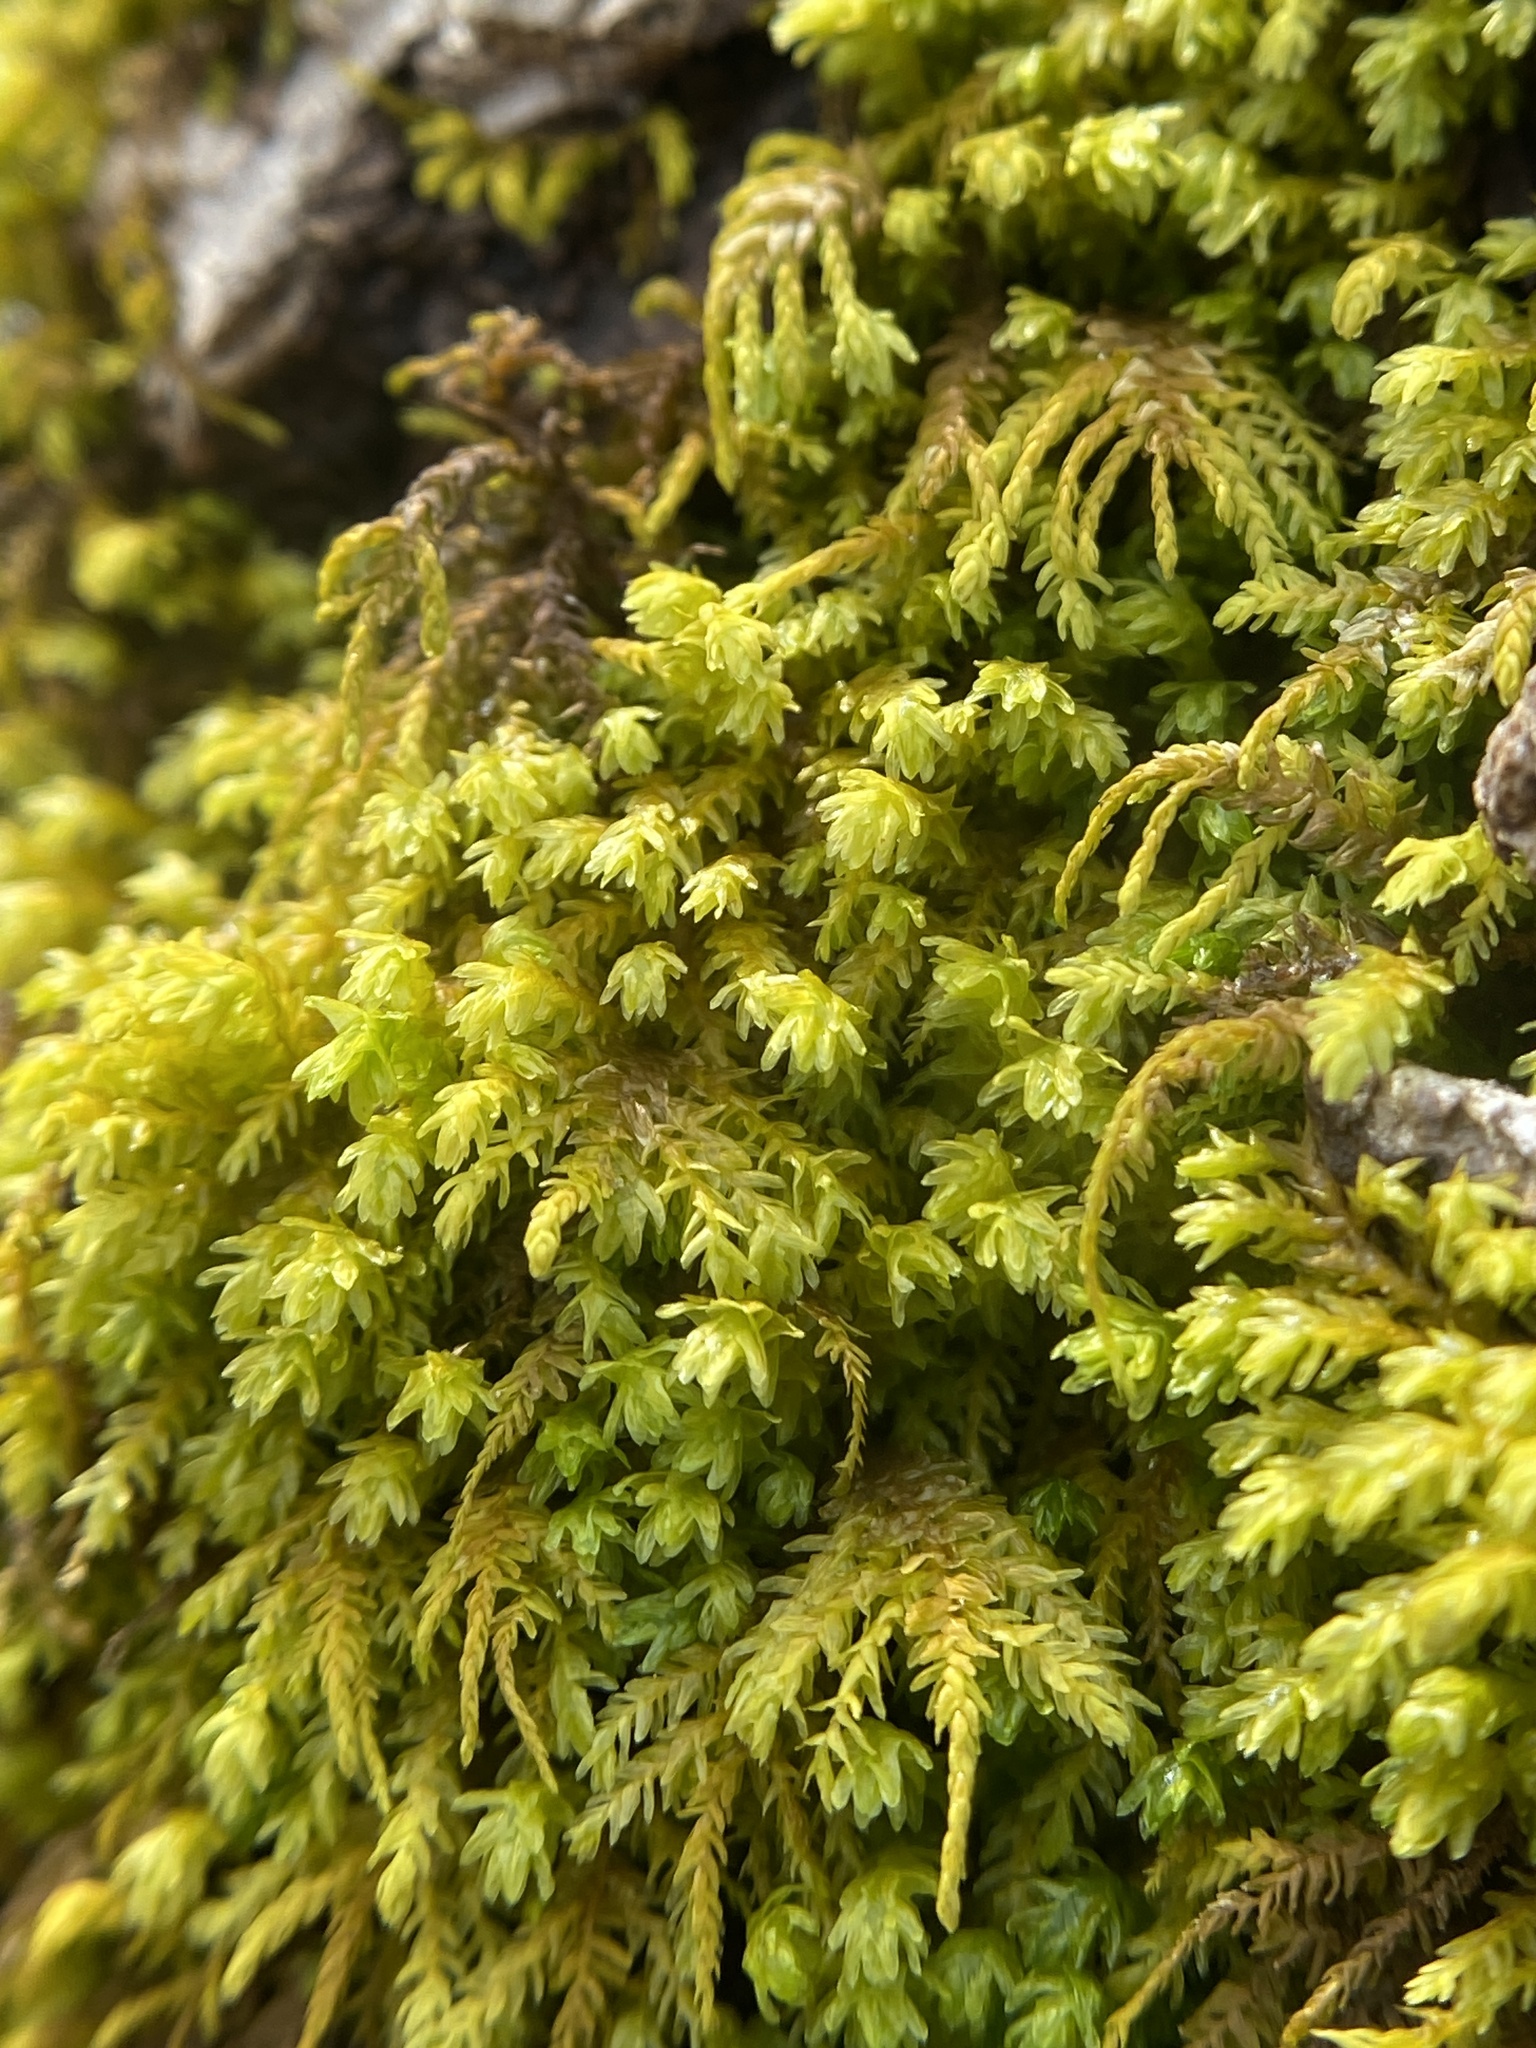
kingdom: Plantae
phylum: Bryophyta
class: Bryopsida
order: Hypnales
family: Neckeraceae
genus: Pseudanomodon
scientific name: Pseudanomodon attenuatus
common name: Tree-skirt moss
